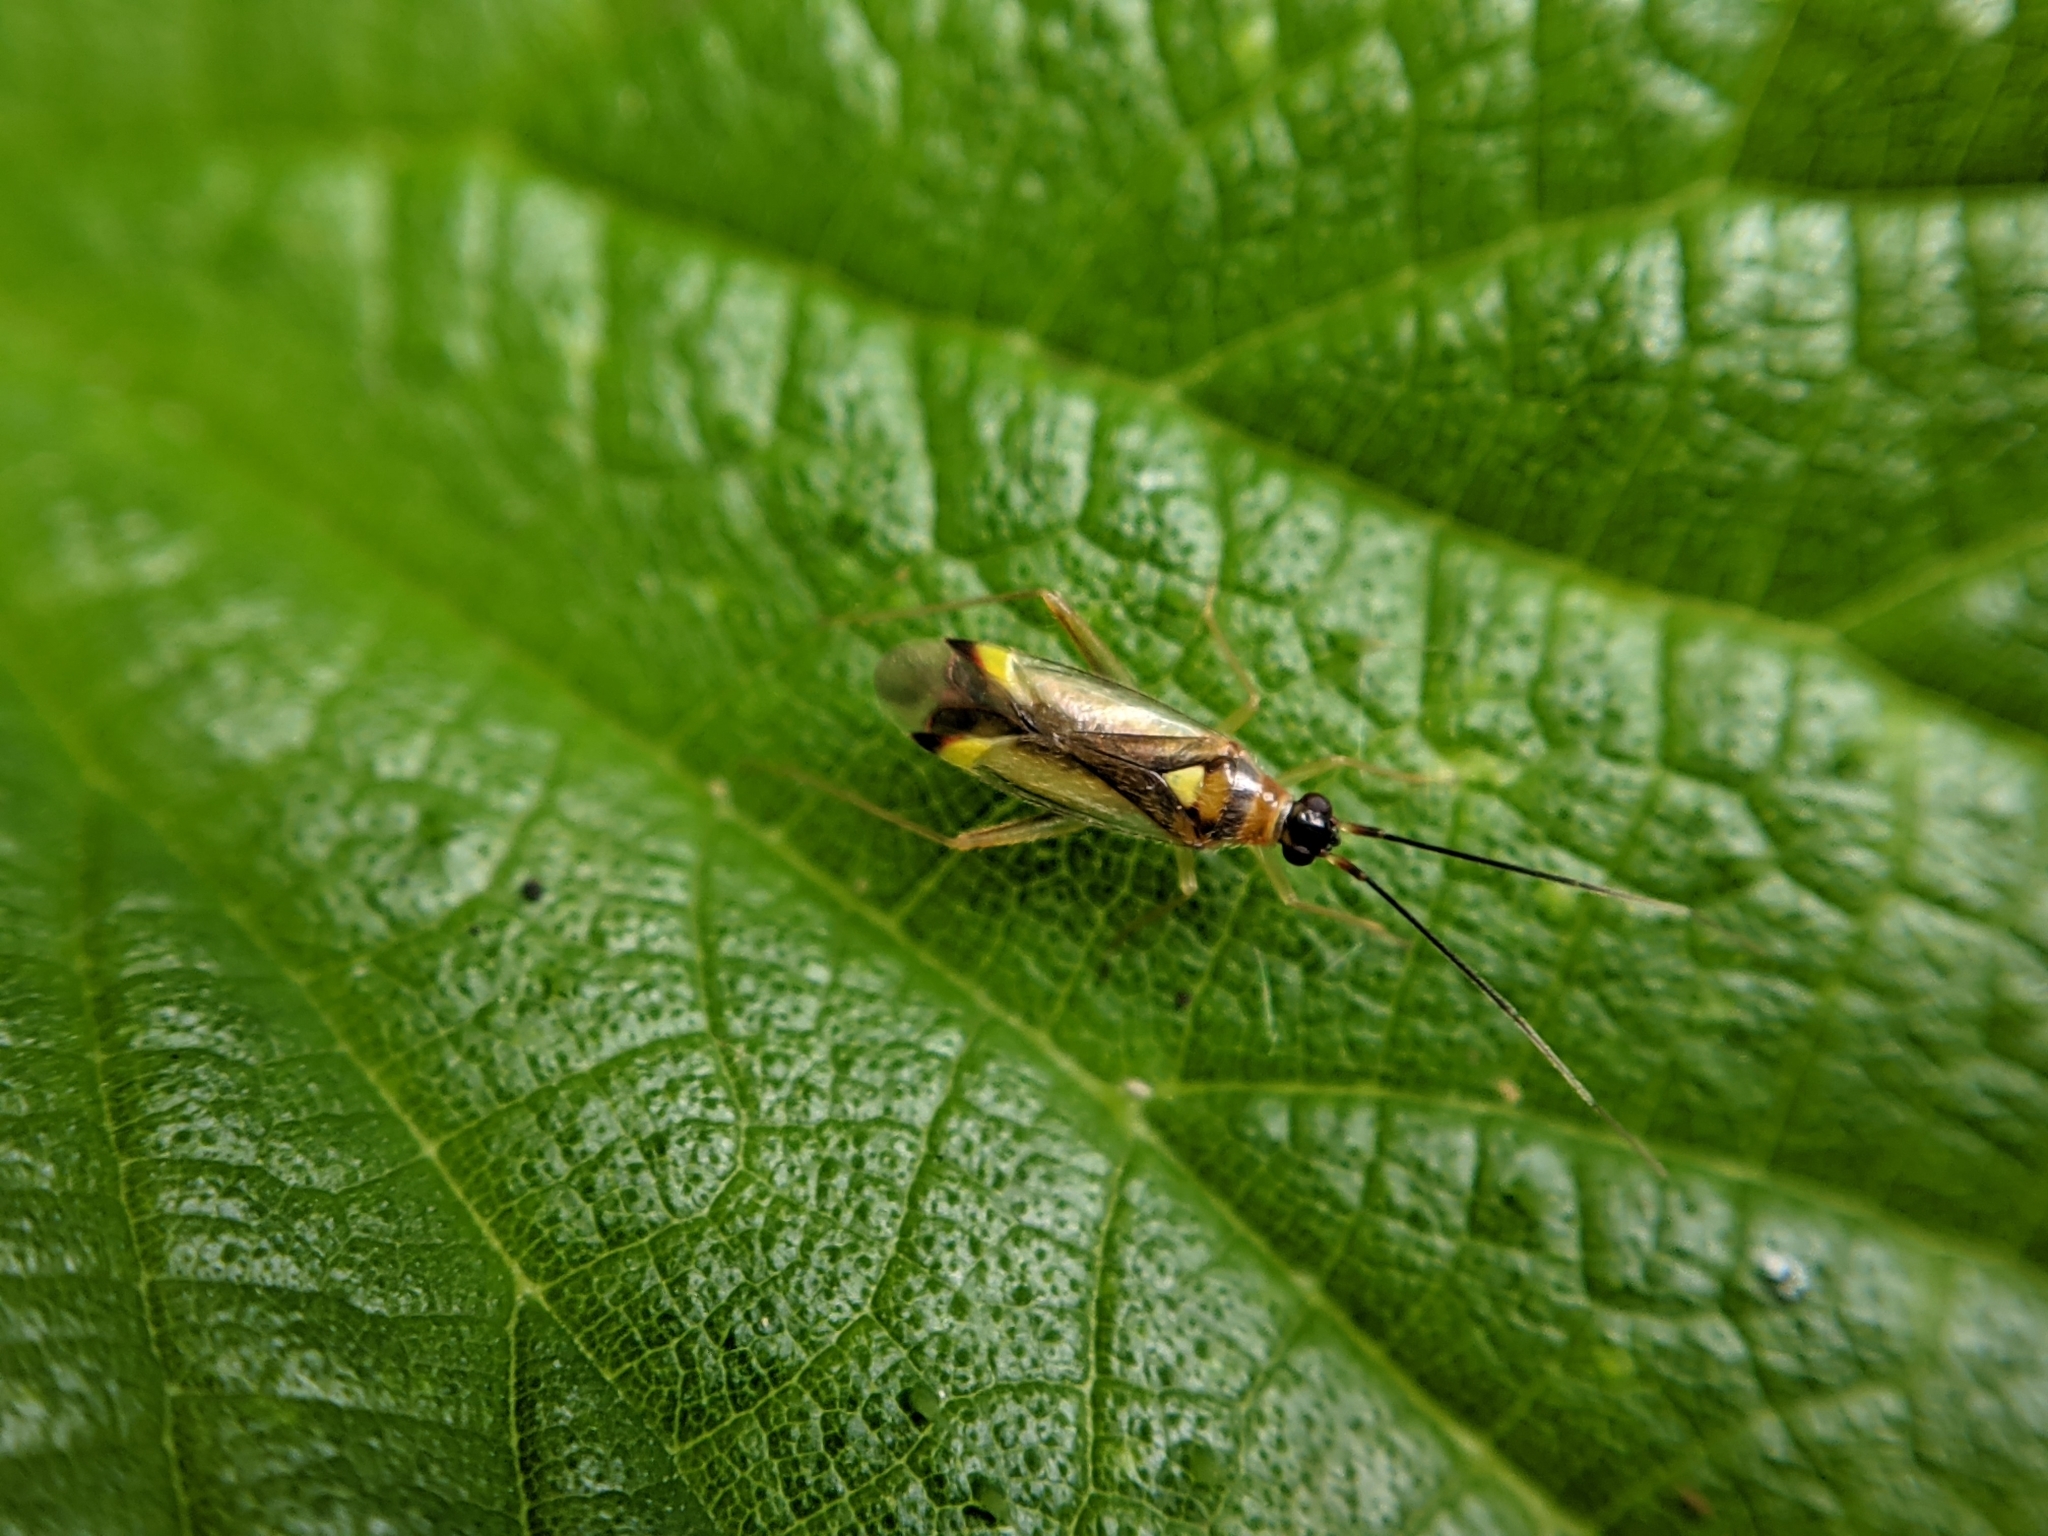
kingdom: Animalia
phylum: Arthropoda
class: Insecta
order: Hemiptera
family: Miridae
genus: Campyloneura
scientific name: Campyloneura virgula
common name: Predatory bug
